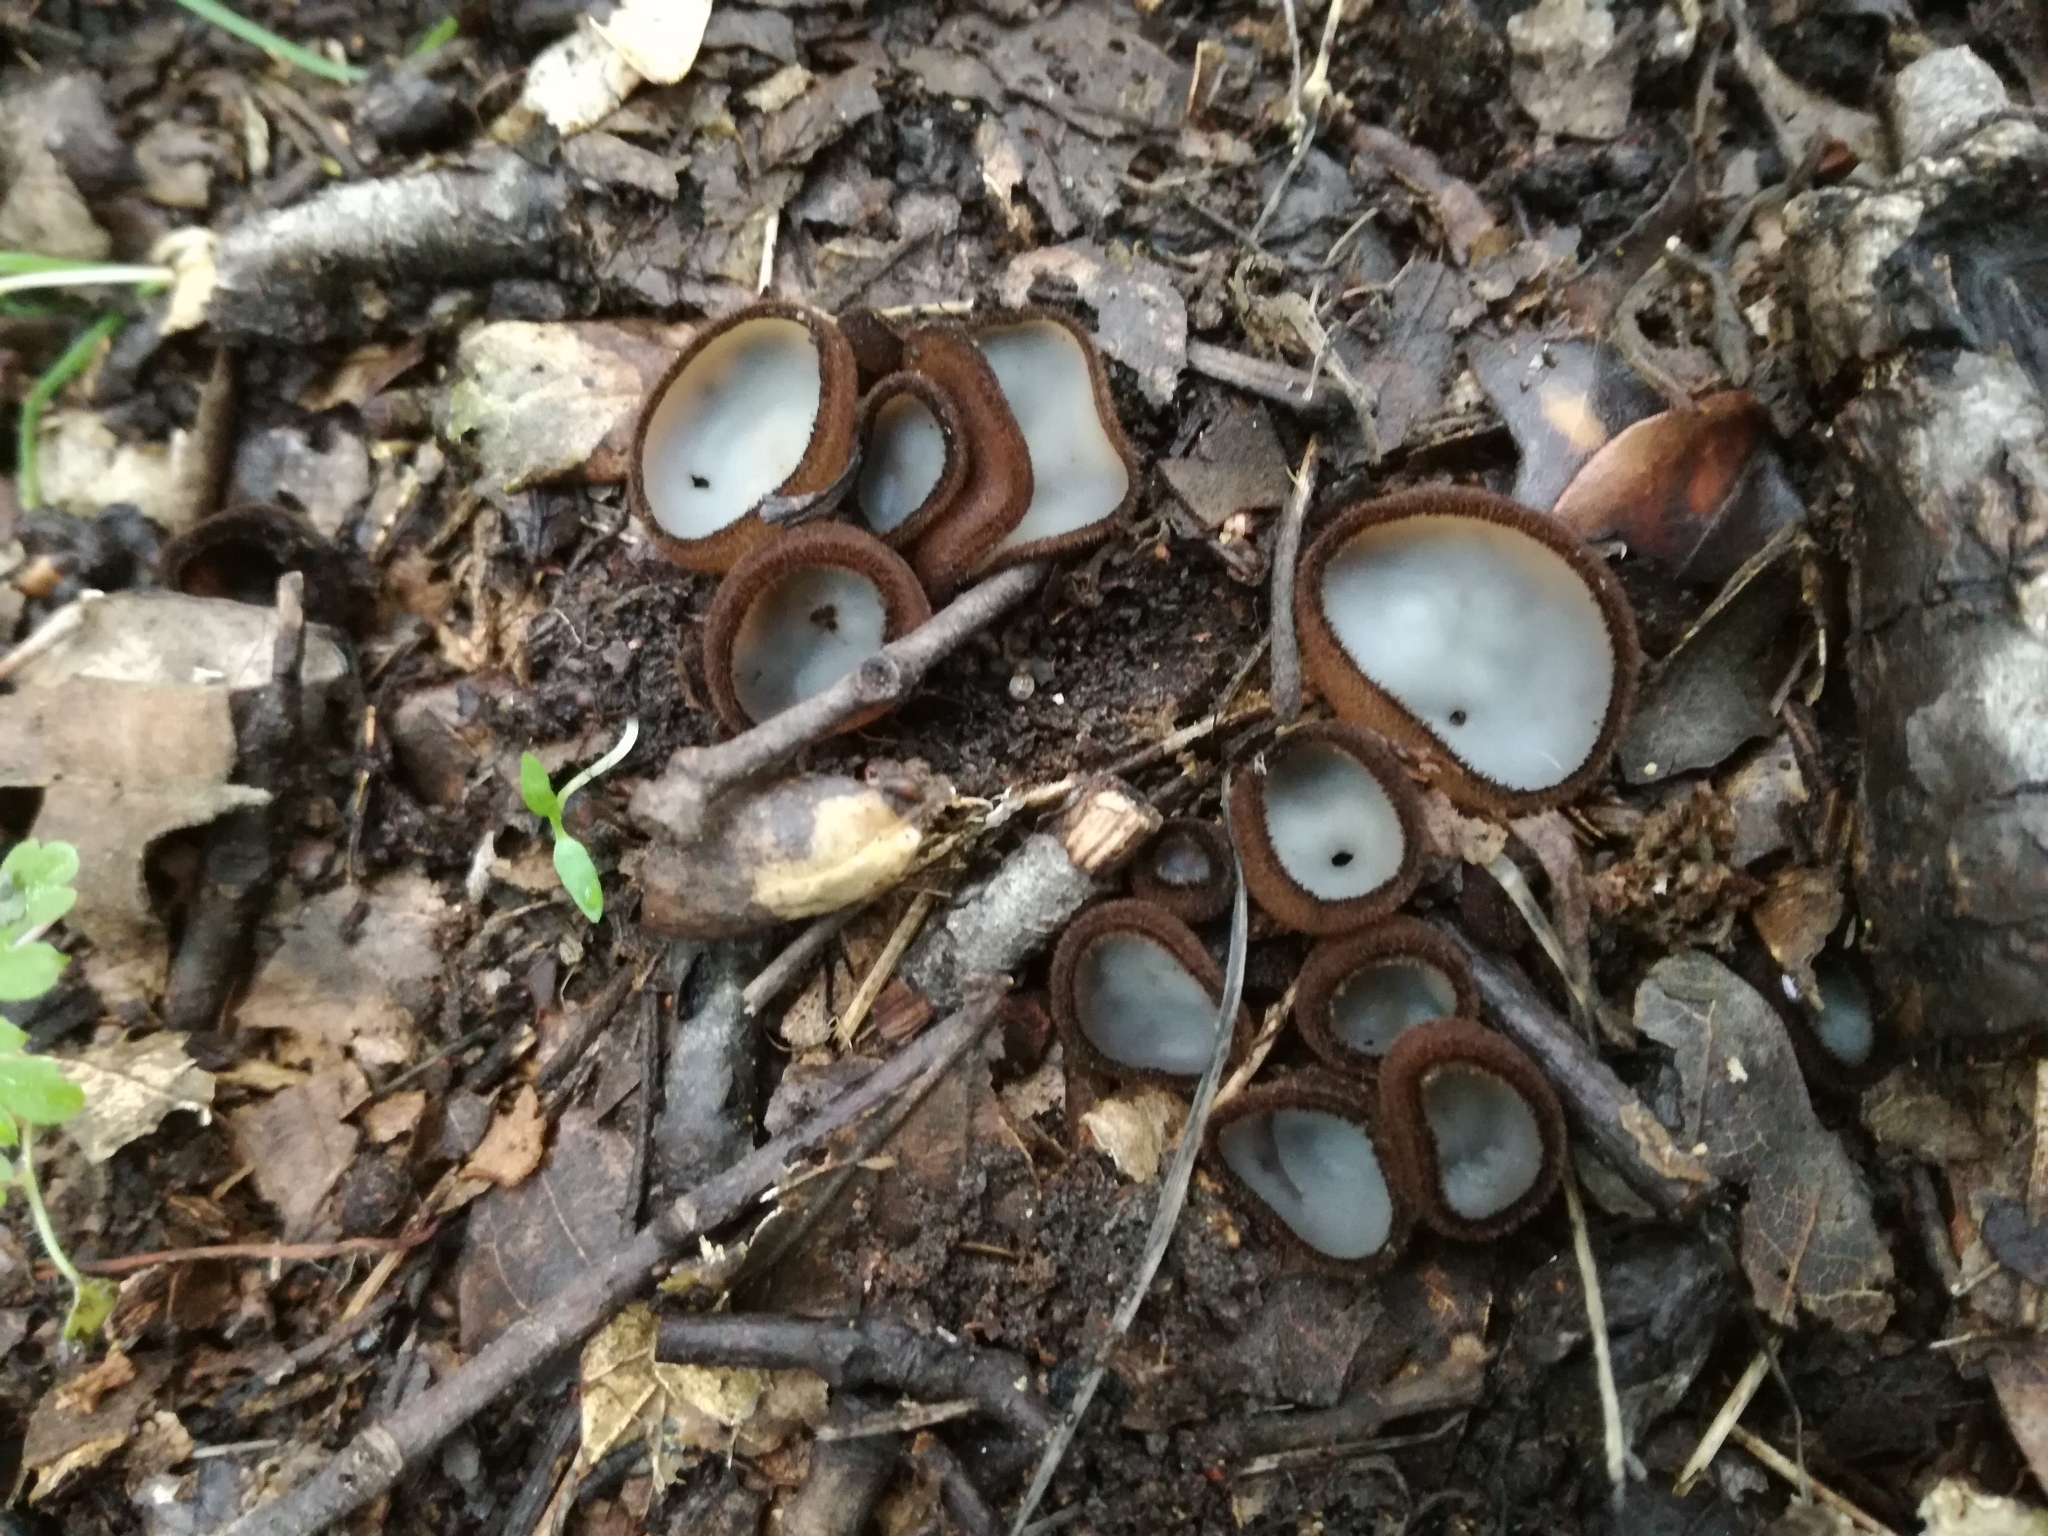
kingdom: Fungi
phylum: Ascomycota
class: Pezizomycetes
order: Pezizales
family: Pyronemataceae
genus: Humaria
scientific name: Humaria hemisphaerica
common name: Glazed cup
